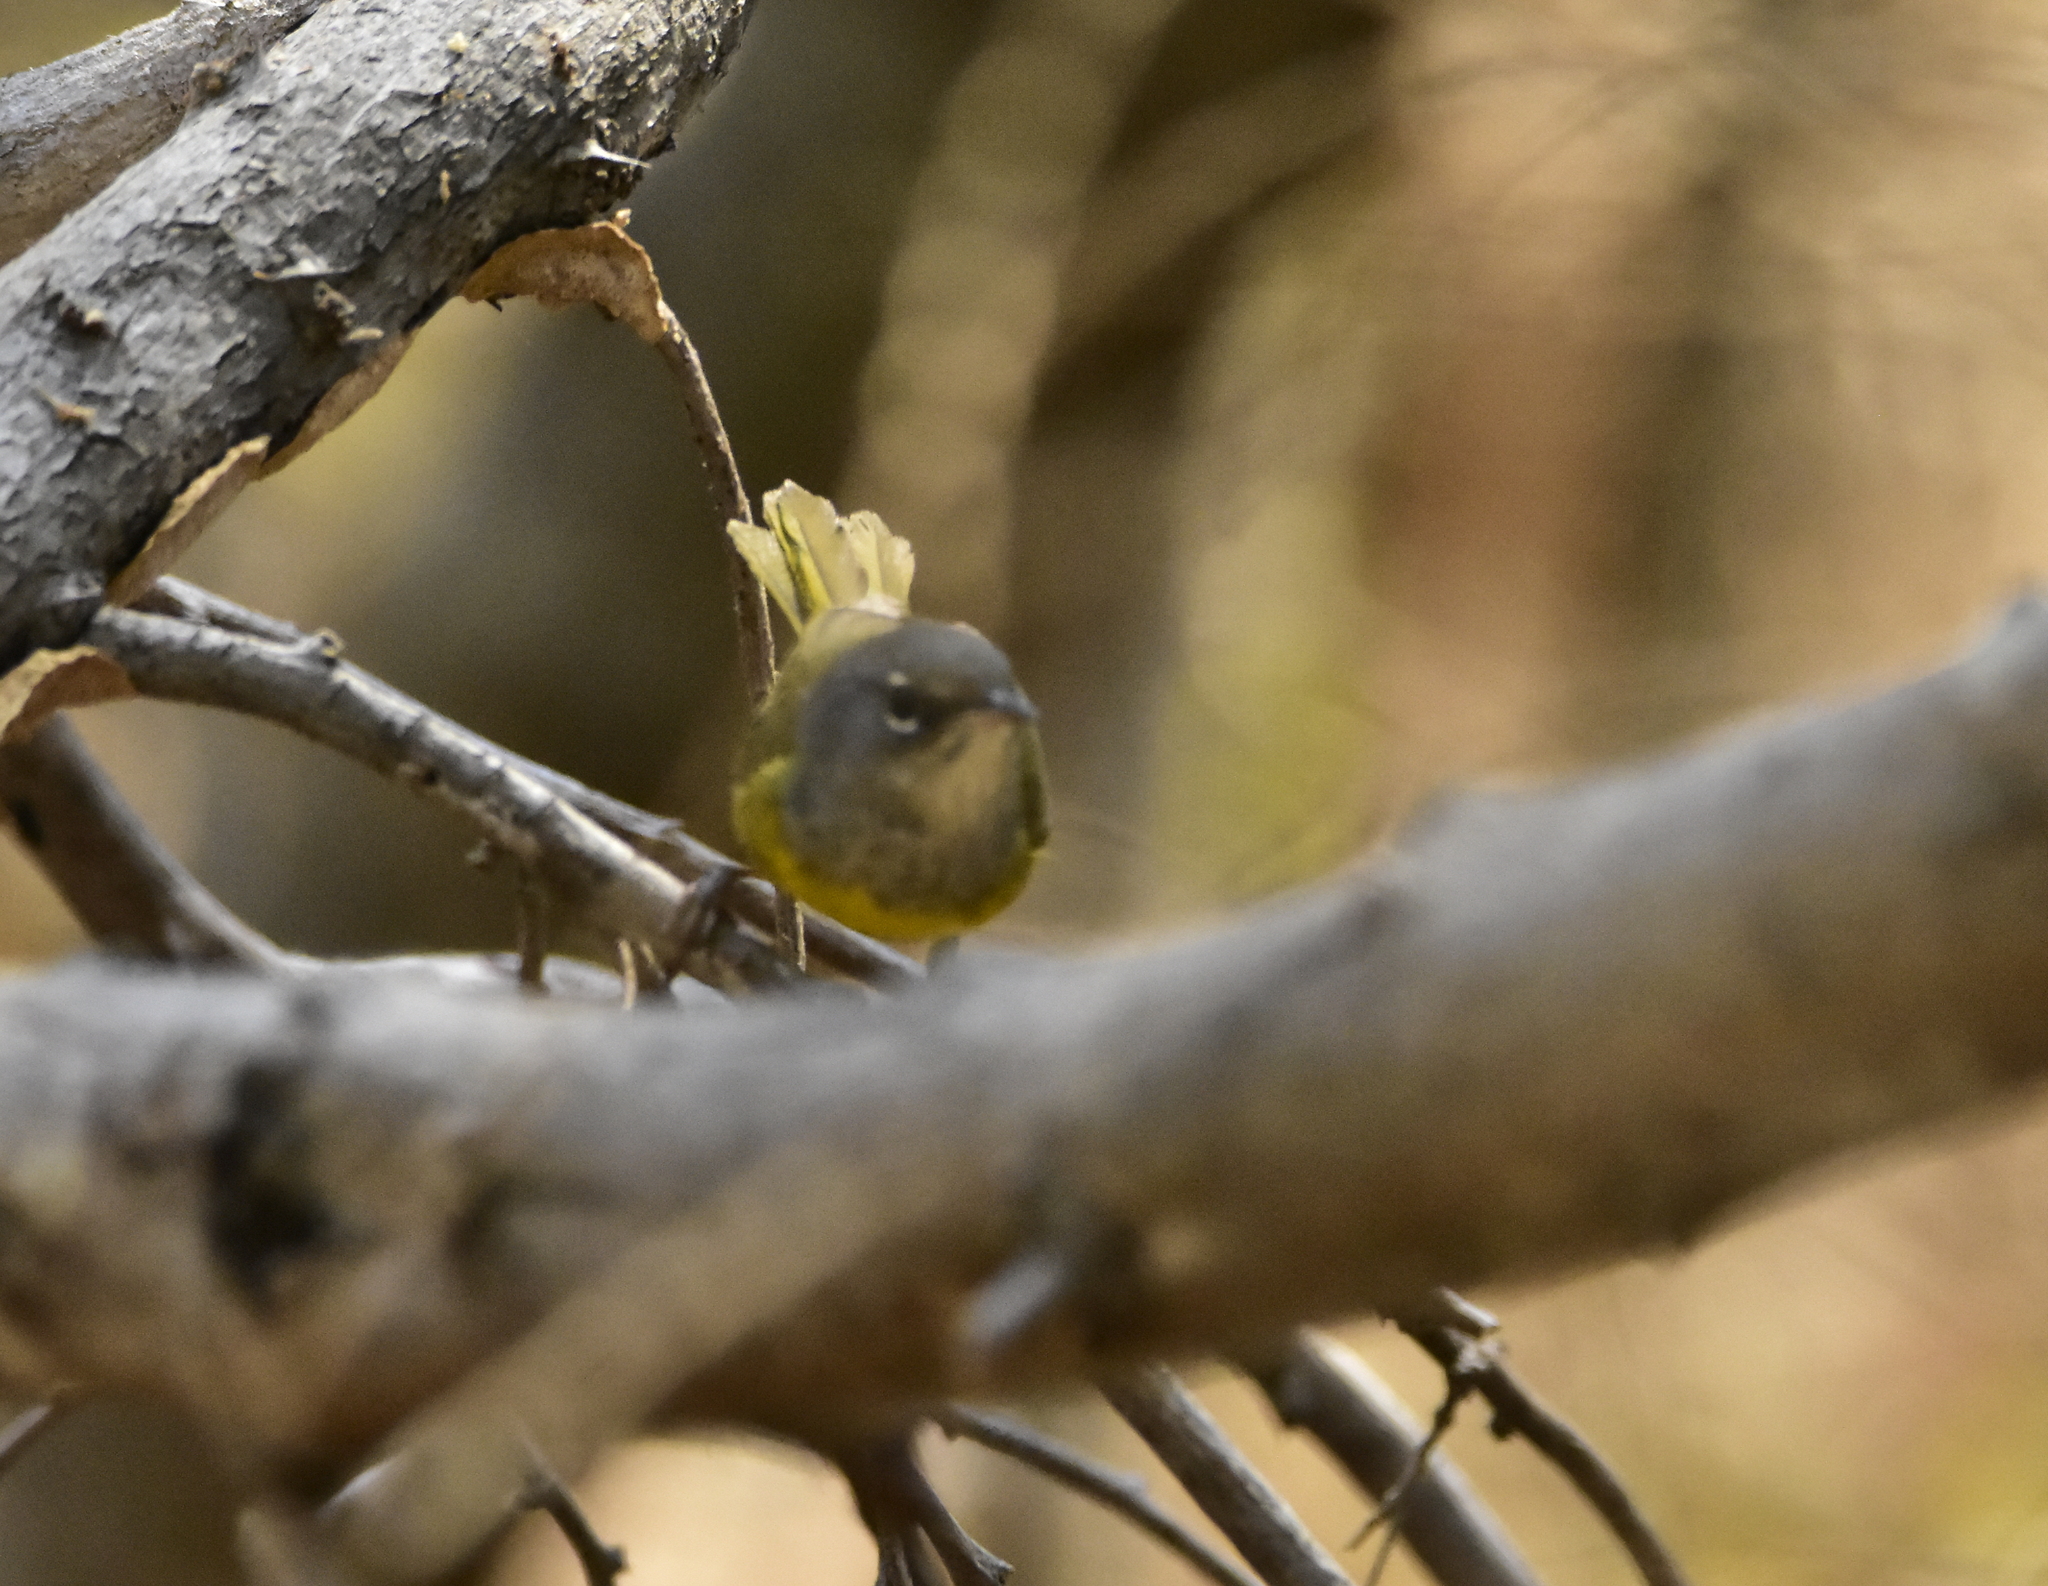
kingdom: Animalia
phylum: Chordata
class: Aves
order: Passeriformes
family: Parulidae
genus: Geothlypis
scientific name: Geothlypis tolmiei
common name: Macgillivray's warbler
